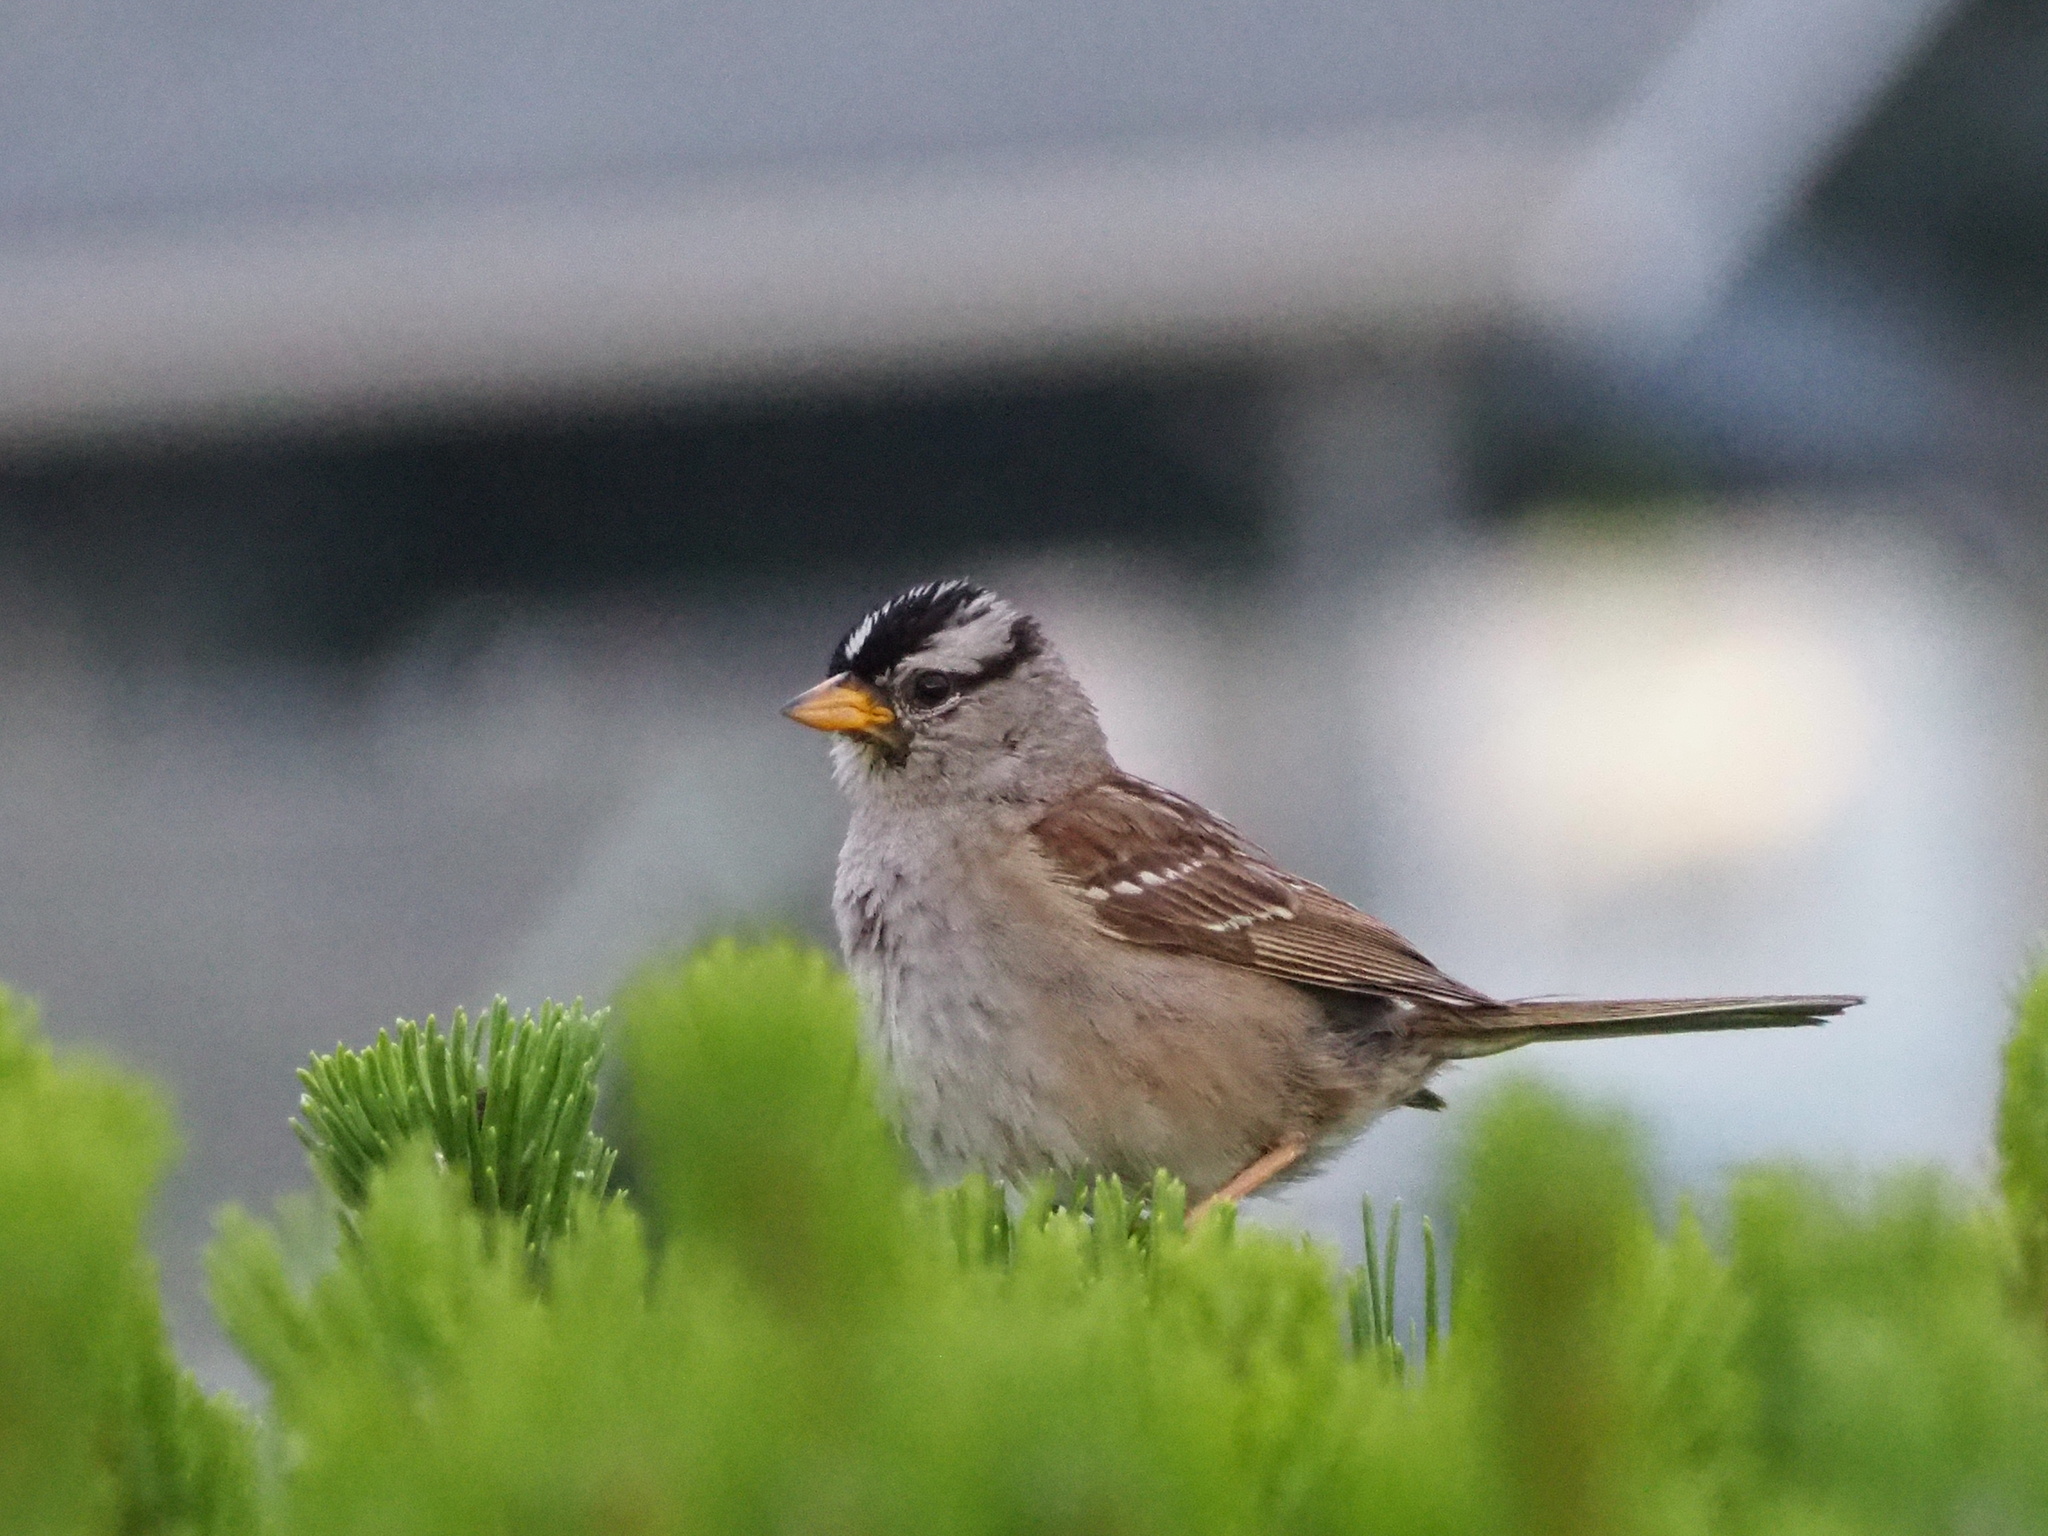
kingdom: Animalia
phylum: Chordata
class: Aves
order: Passeriformes
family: Passerellidae
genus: Zonotrichia
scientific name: Zonotrichia leucophrys
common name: White-crowned sparrow
